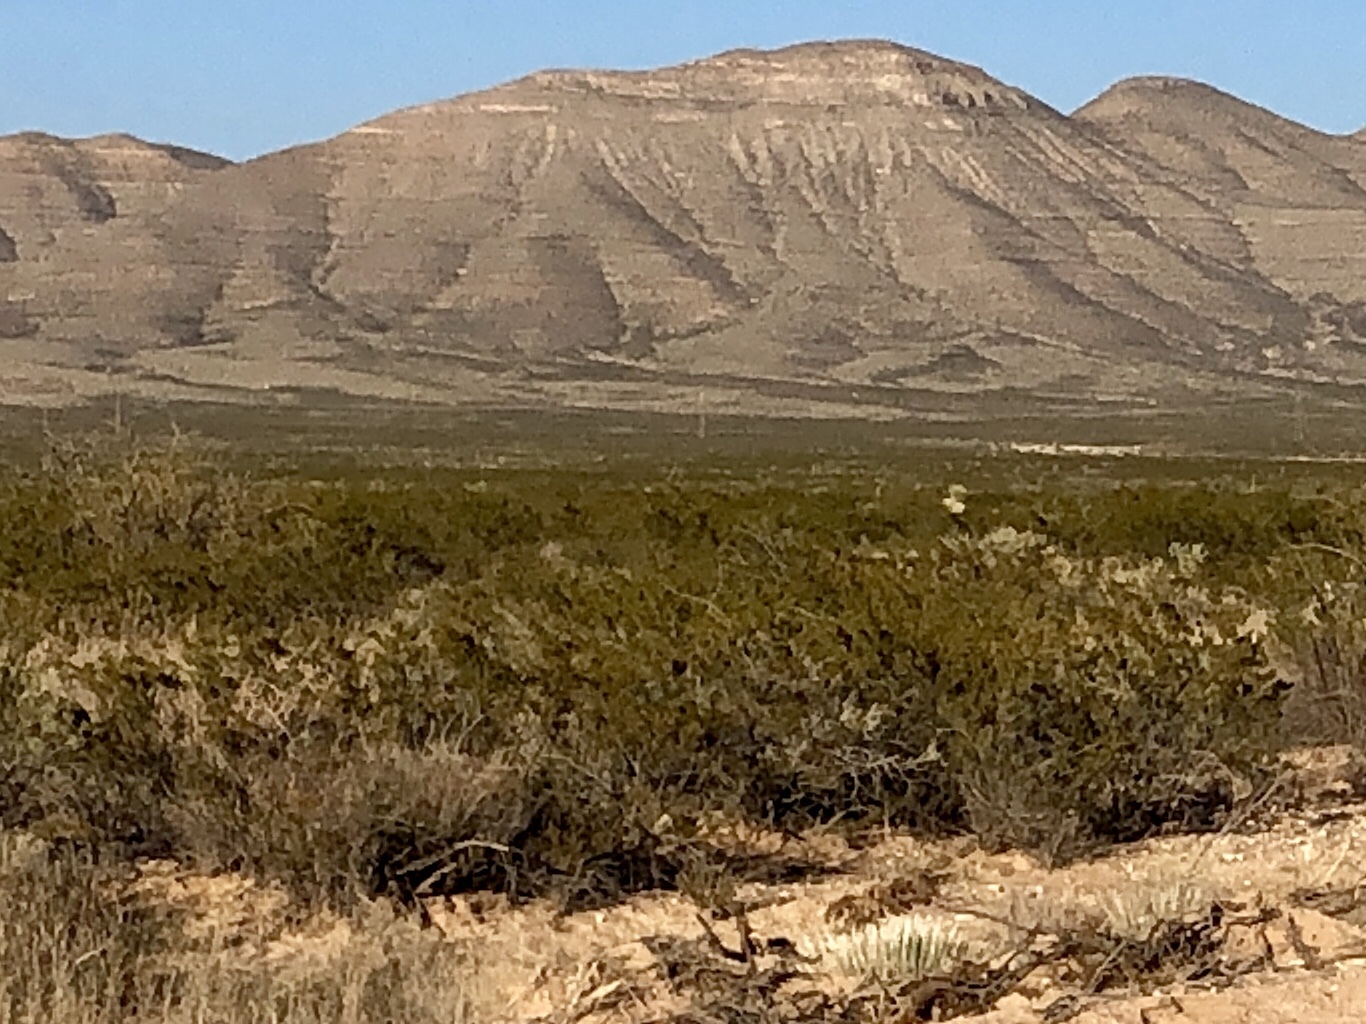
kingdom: Plantae
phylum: Tracheophyta
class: Magnoliopsida
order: Zygophyllales
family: Zygophyllaceae
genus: Larrea
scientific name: Larrea tridentata
